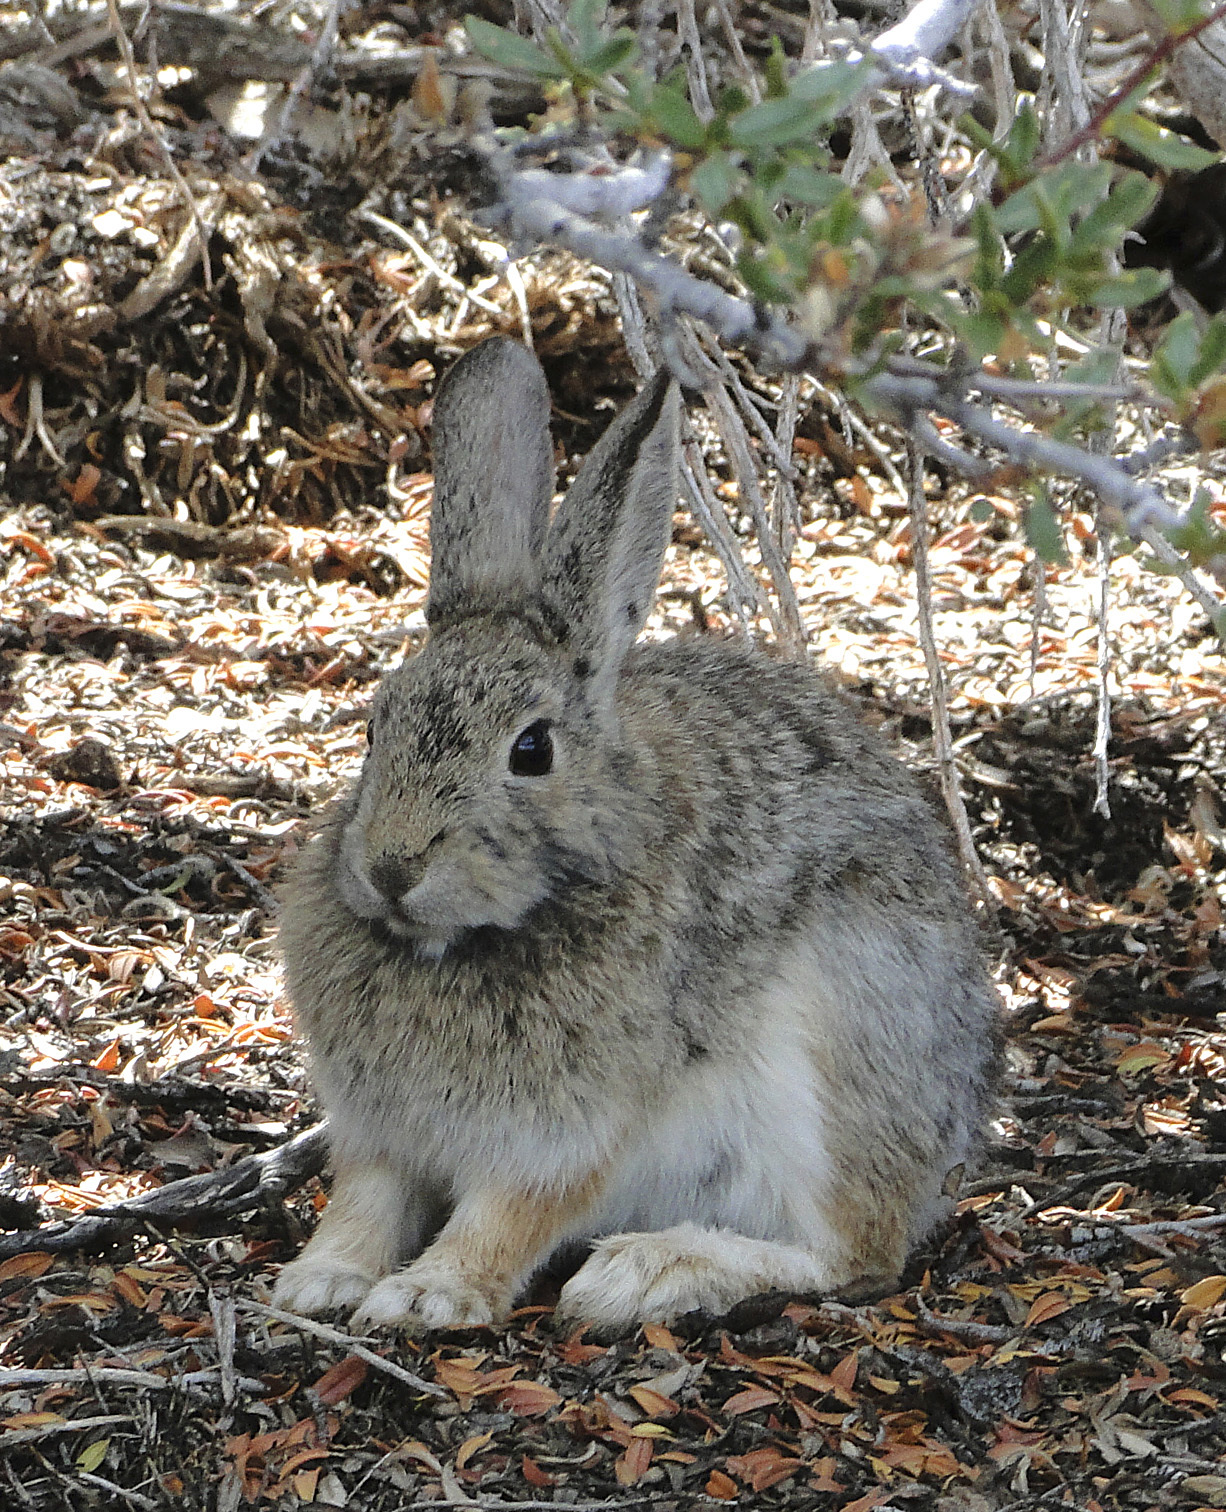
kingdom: Animalia
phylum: Chordata
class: Mammalia
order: Lagomorpha
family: Leporidae
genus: Sylvilagus
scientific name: Sylvilagus nuttallii
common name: Mountain cottontail
